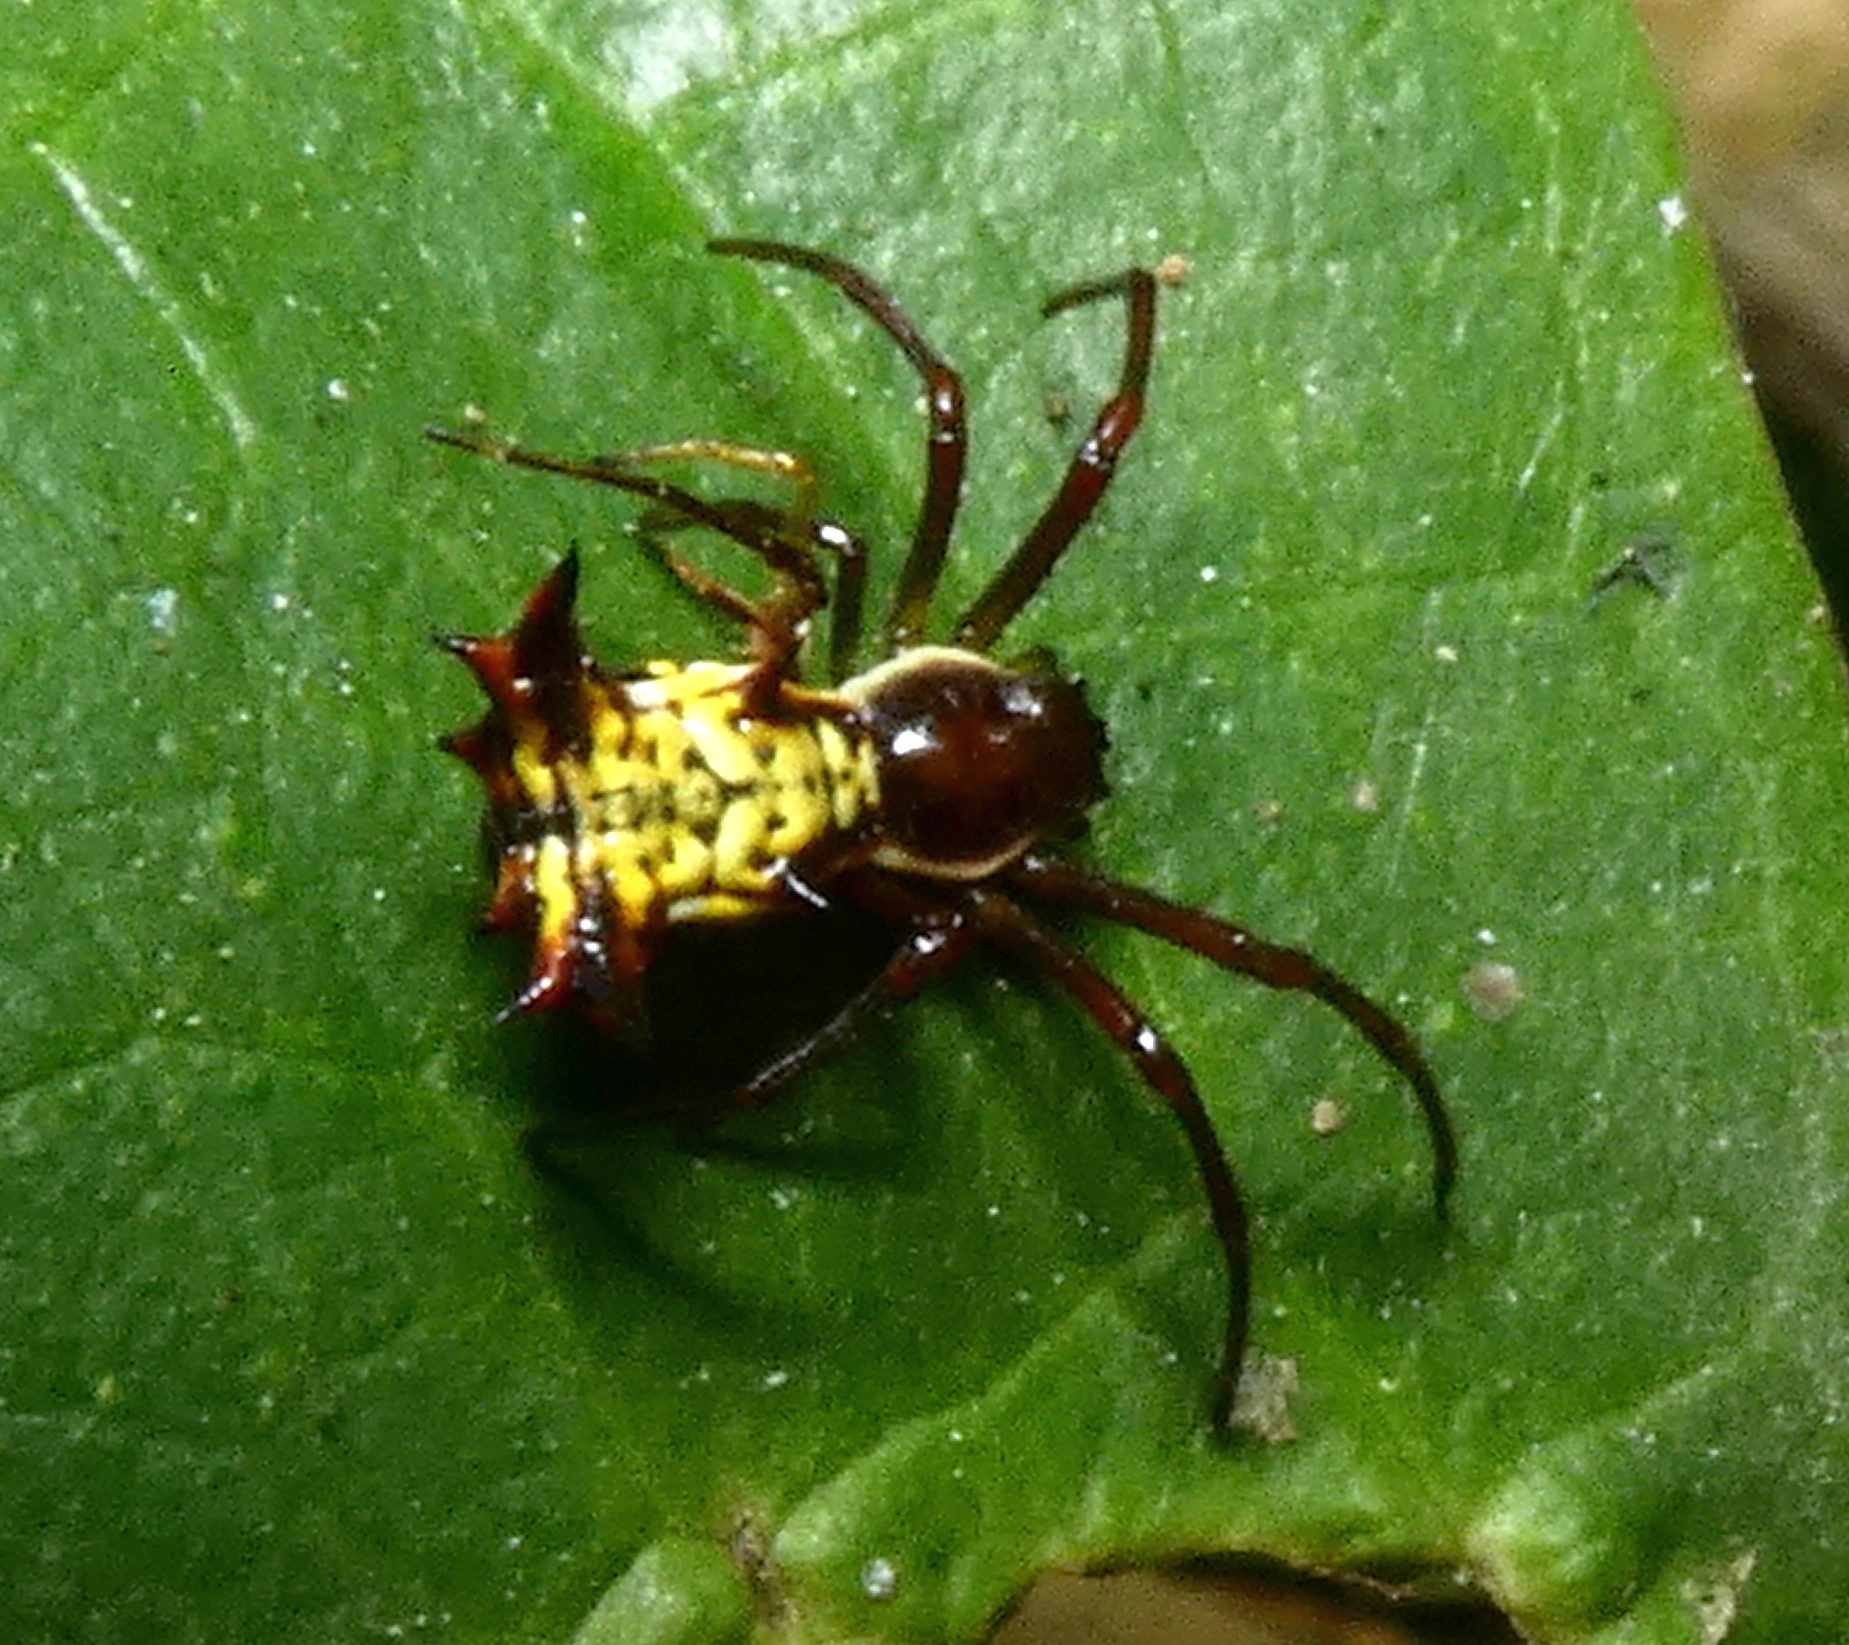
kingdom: Animalia
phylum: Arthropoda
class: Arachnida
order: Araneae
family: Araneidae
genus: Micrathena
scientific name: Micrathena fissispina
